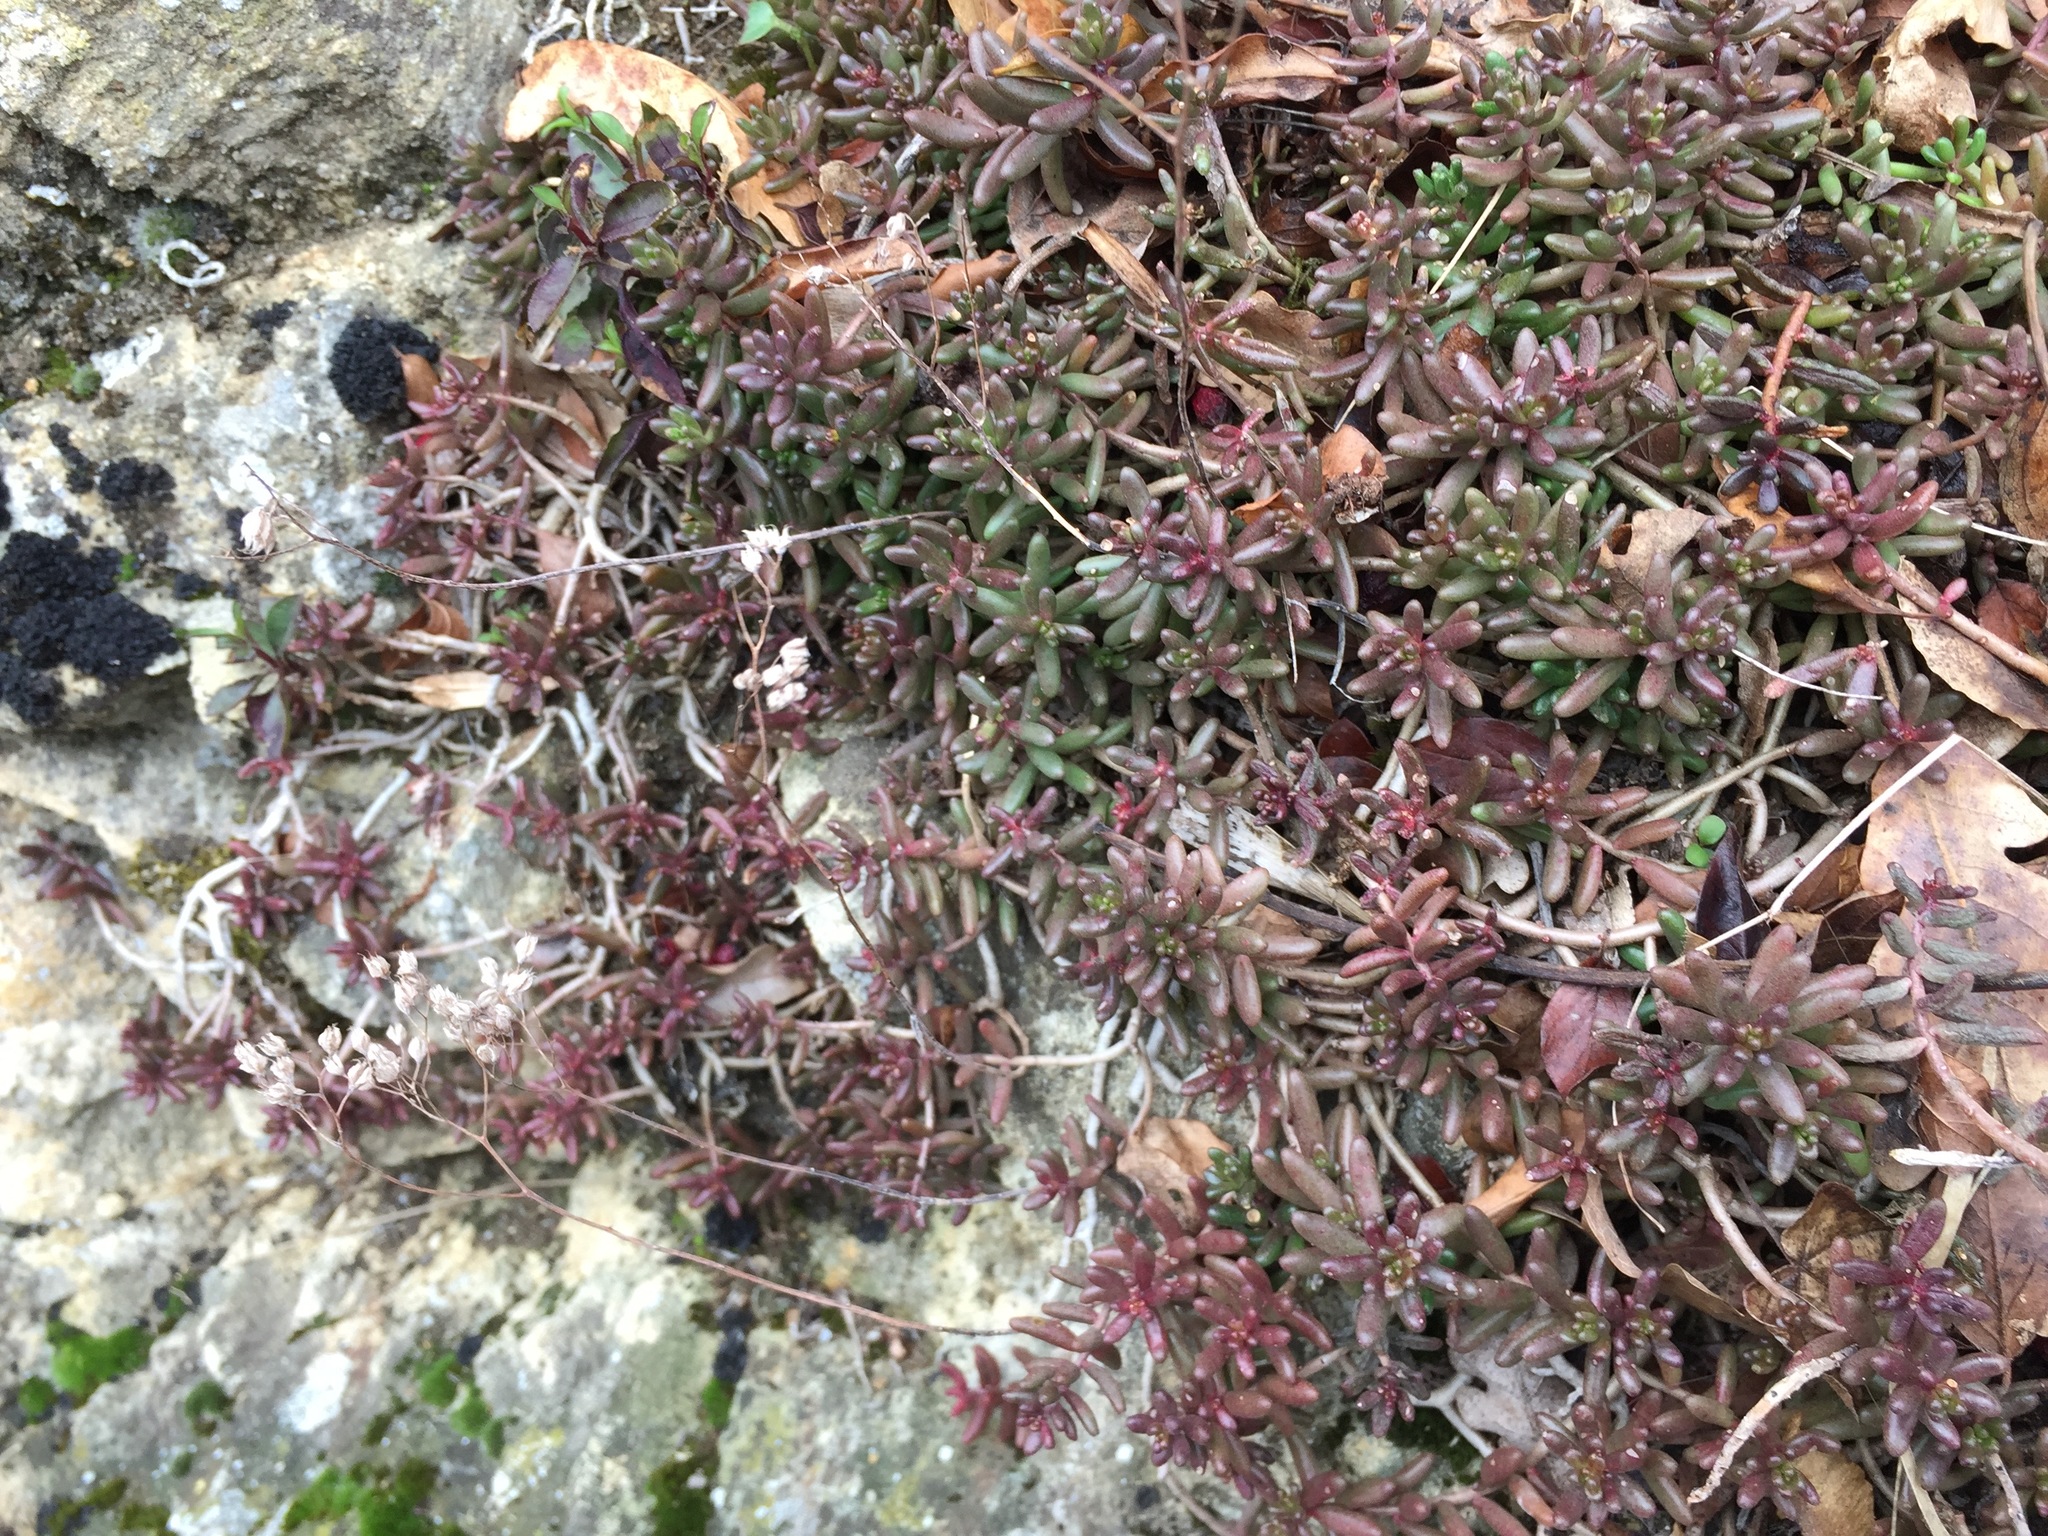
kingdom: Plantae
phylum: Tracheophyta
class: Magnoliopsida
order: Saxifragales
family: Crassulaceae
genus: Sedum
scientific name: Sedum album
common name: White stonecrop
